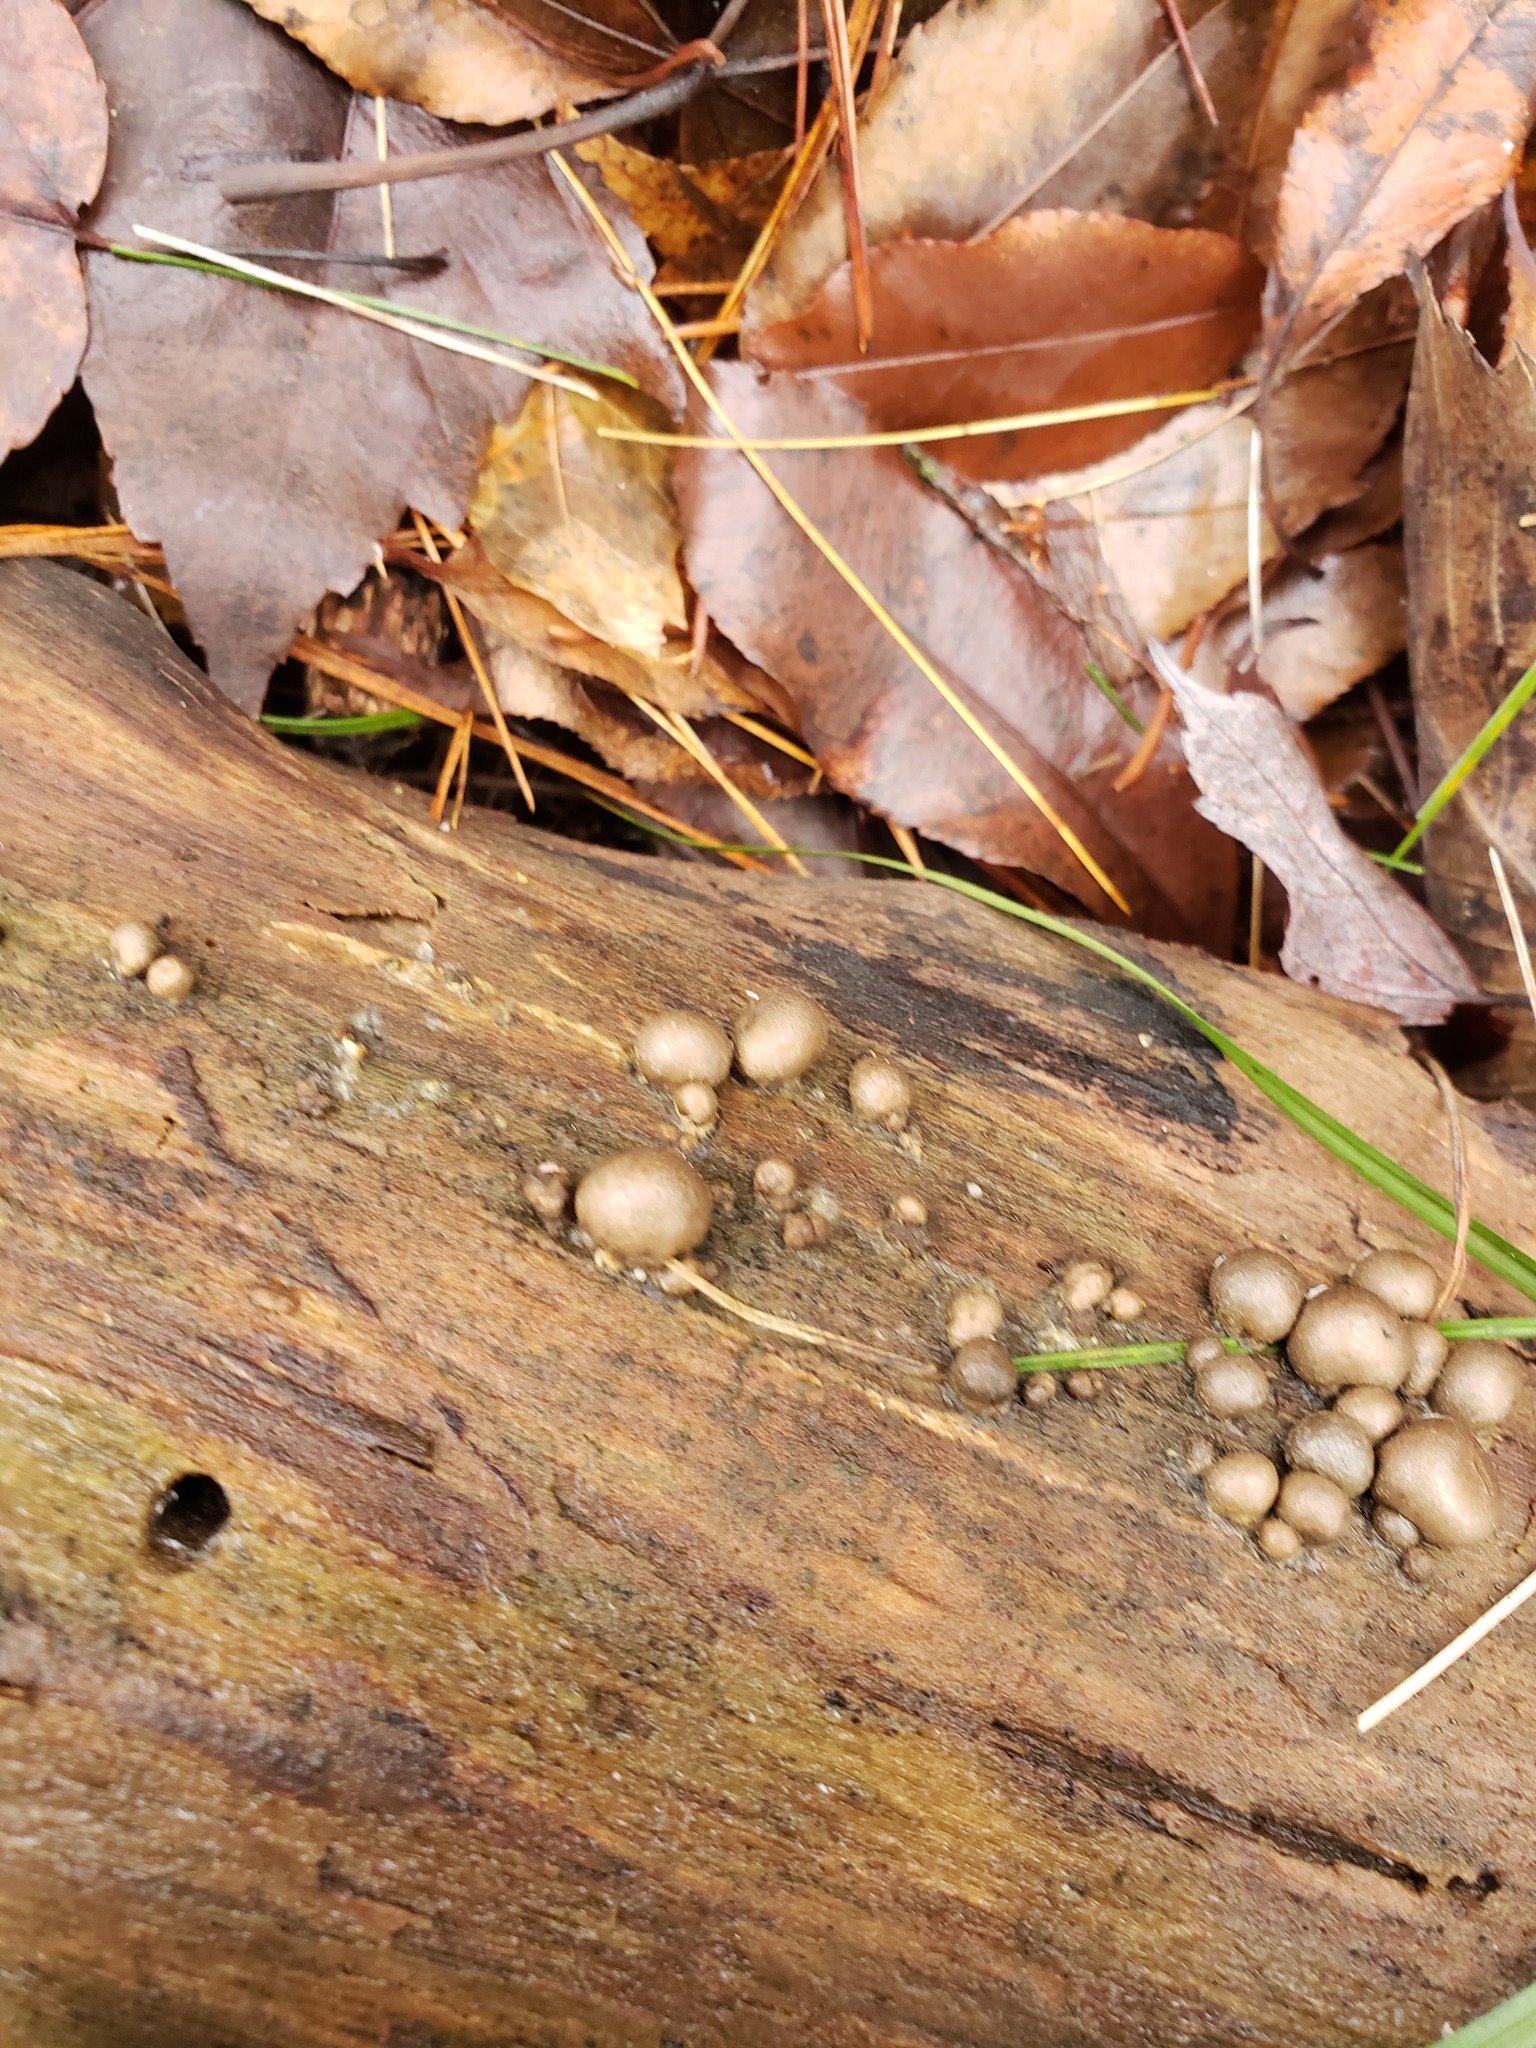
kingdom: Protozoa
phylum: Mycetozoa
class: Myxomycetes
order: Cribrariales
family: Tubiferaceae
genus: Lycogala
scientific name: Lycogala epidendrum
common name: Wolf's milk
